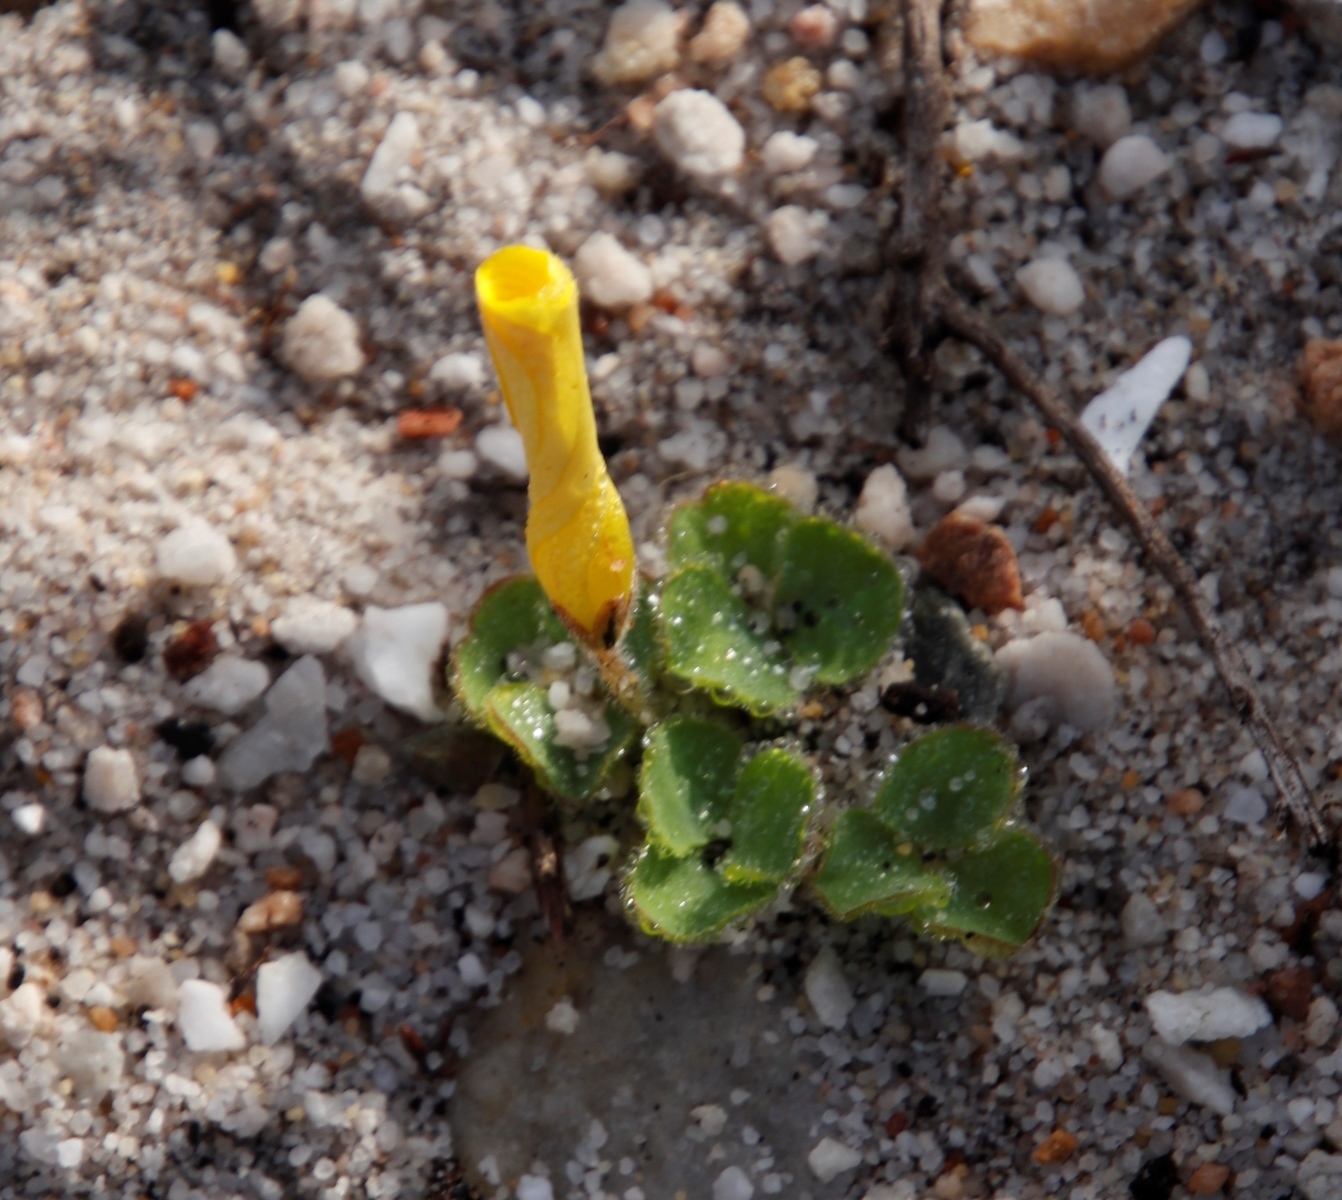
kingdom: Plantae
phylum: Tracheophyta
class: Magnoliopsida
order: Oxalidales
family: Oxalidaceae
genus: Oxalis
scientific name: Oxalis luteola
